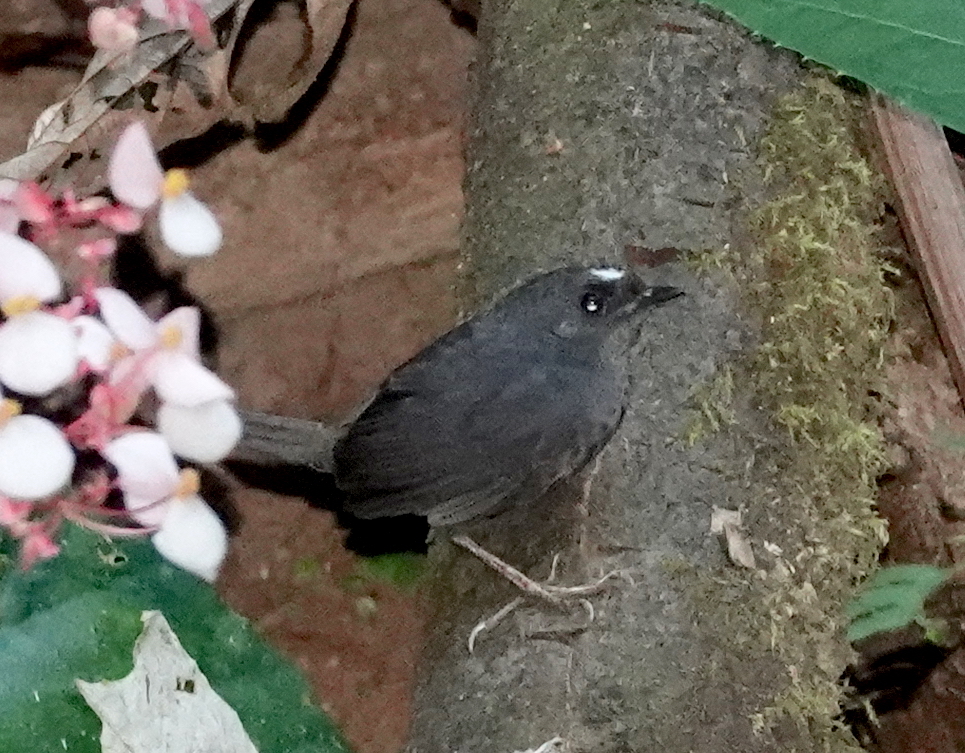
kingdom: Animalia
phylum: Chordata
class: Aves
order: Passeriformes
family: Rhinocryptidae
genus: Scytalopus
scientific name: Scytalopus sanctaemartae
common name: Santa marta tapaculo
